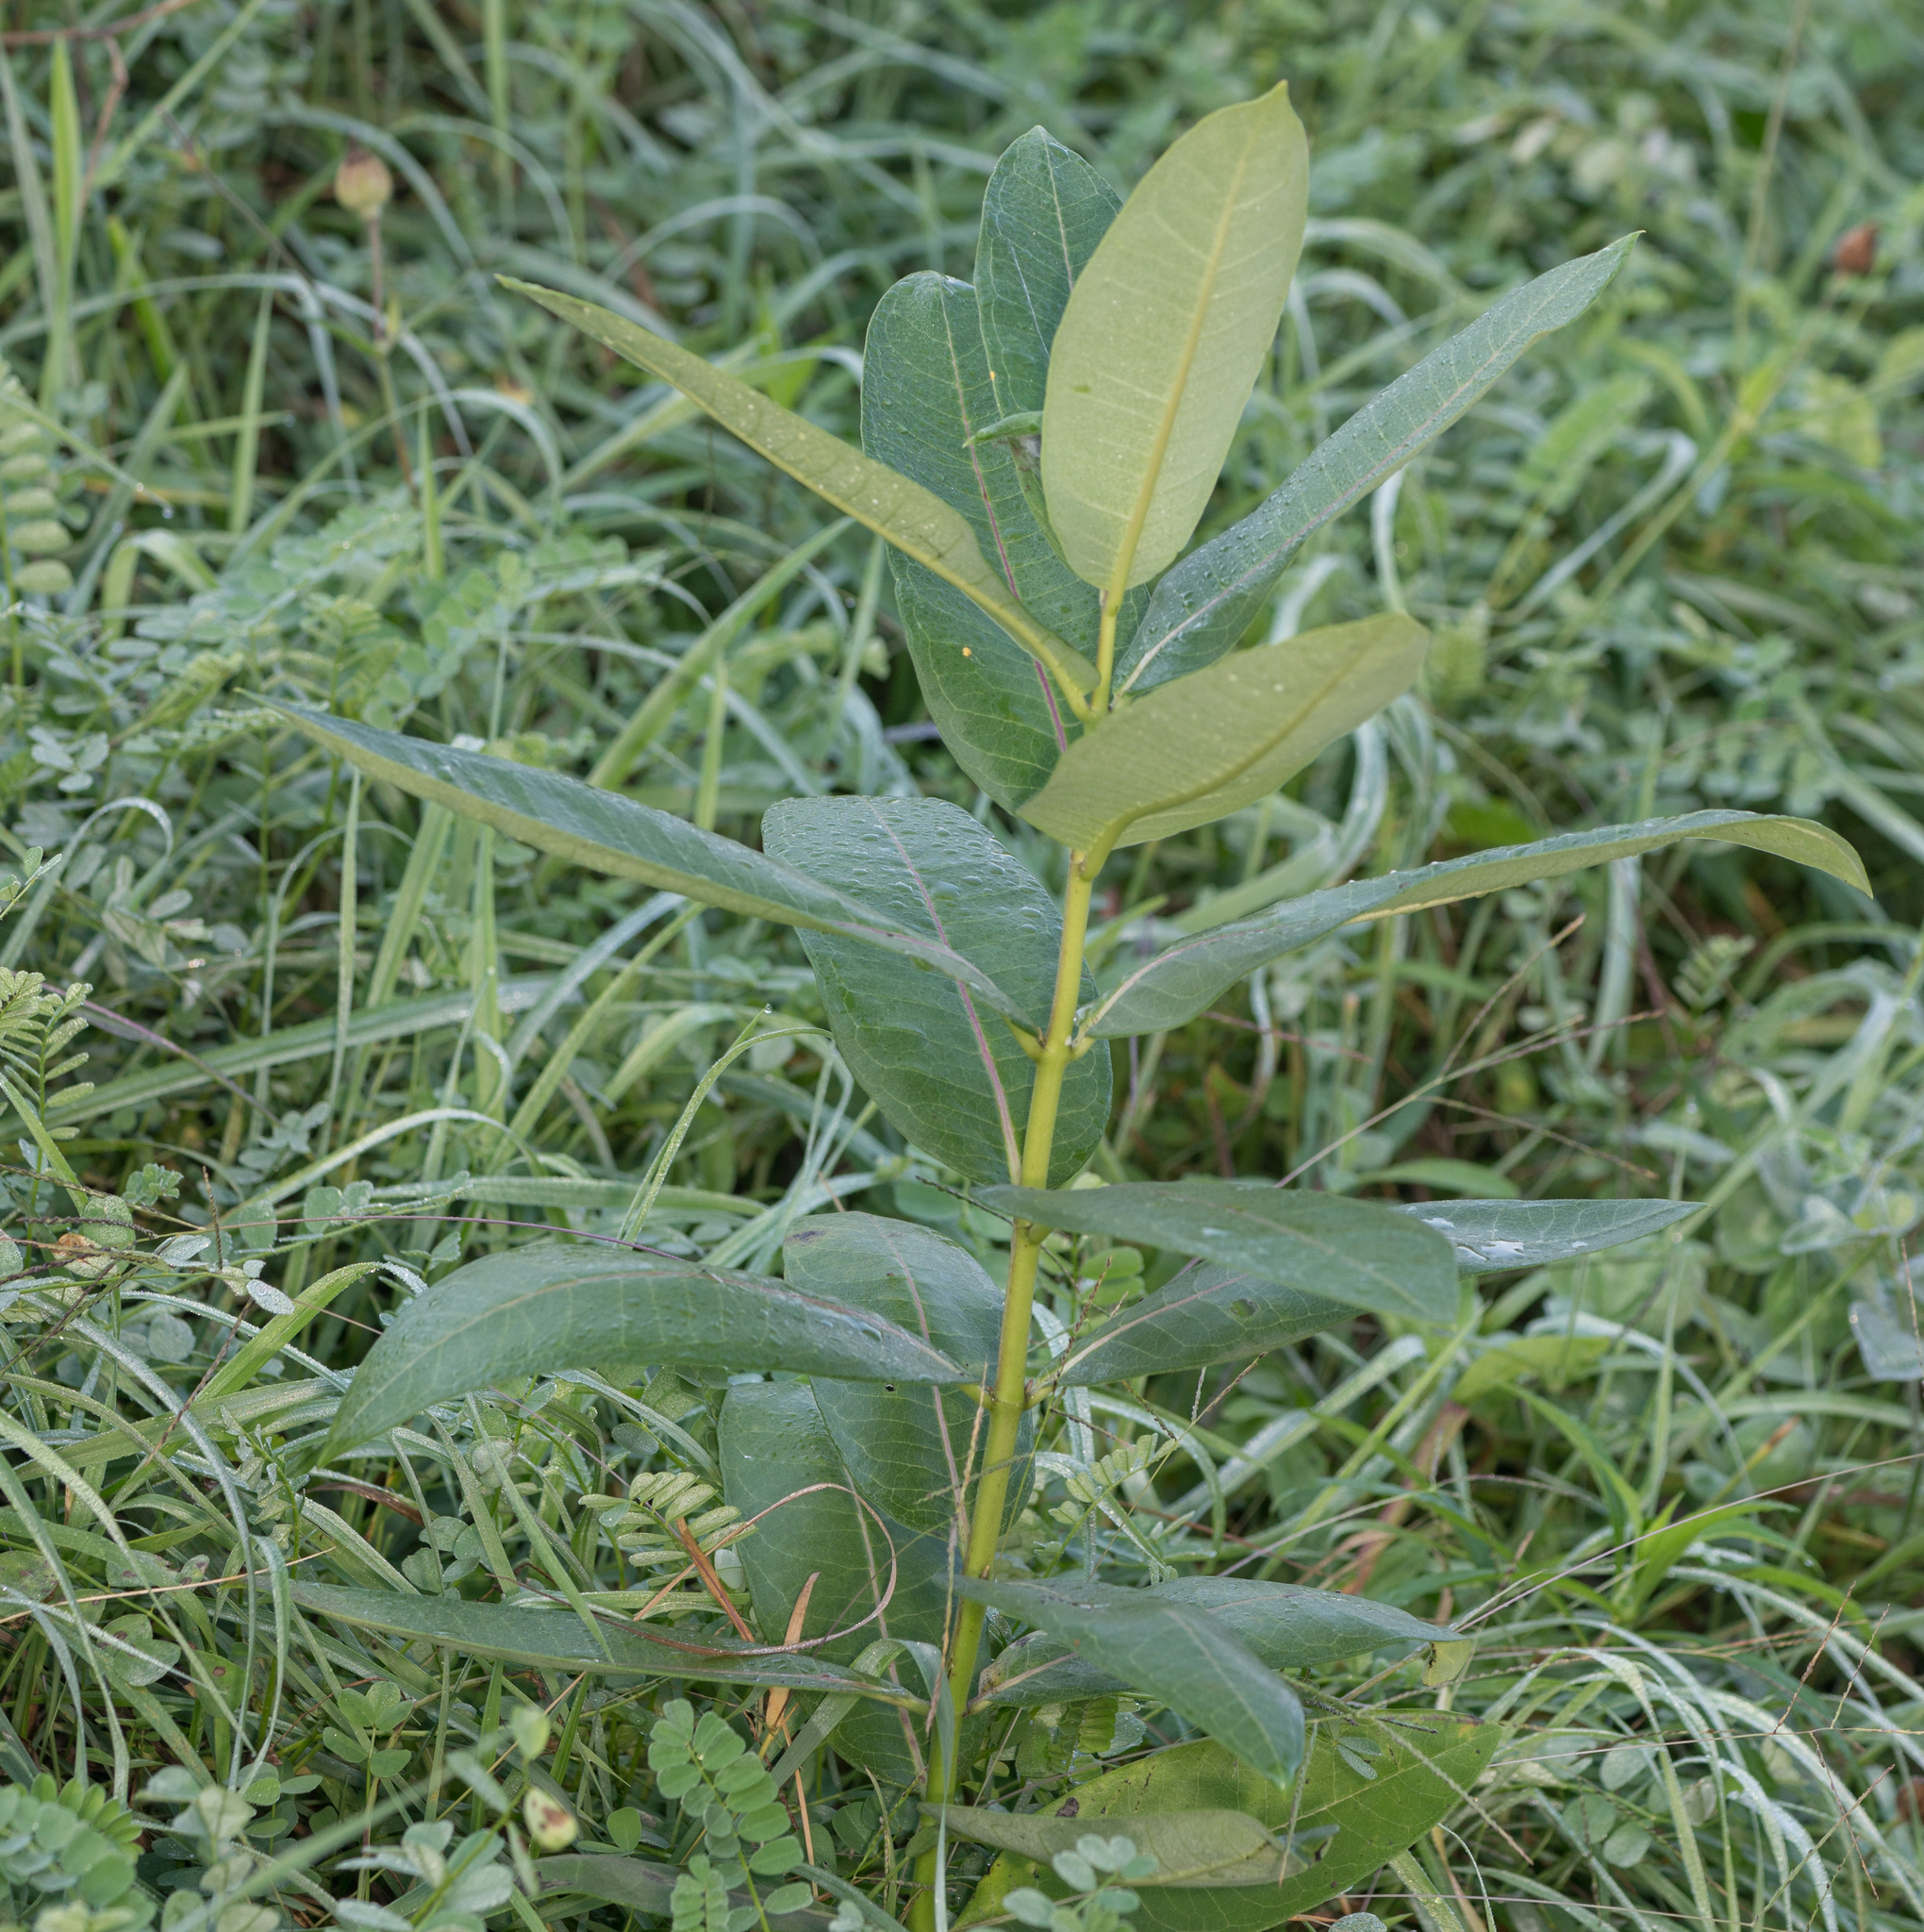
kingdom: Plantae
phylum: Tracheophyta
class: Magnoliopsida
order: Gentianales
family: Apocynaceae
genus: Asclepias
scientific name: Asclepias syriaca
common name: Common milkweed
